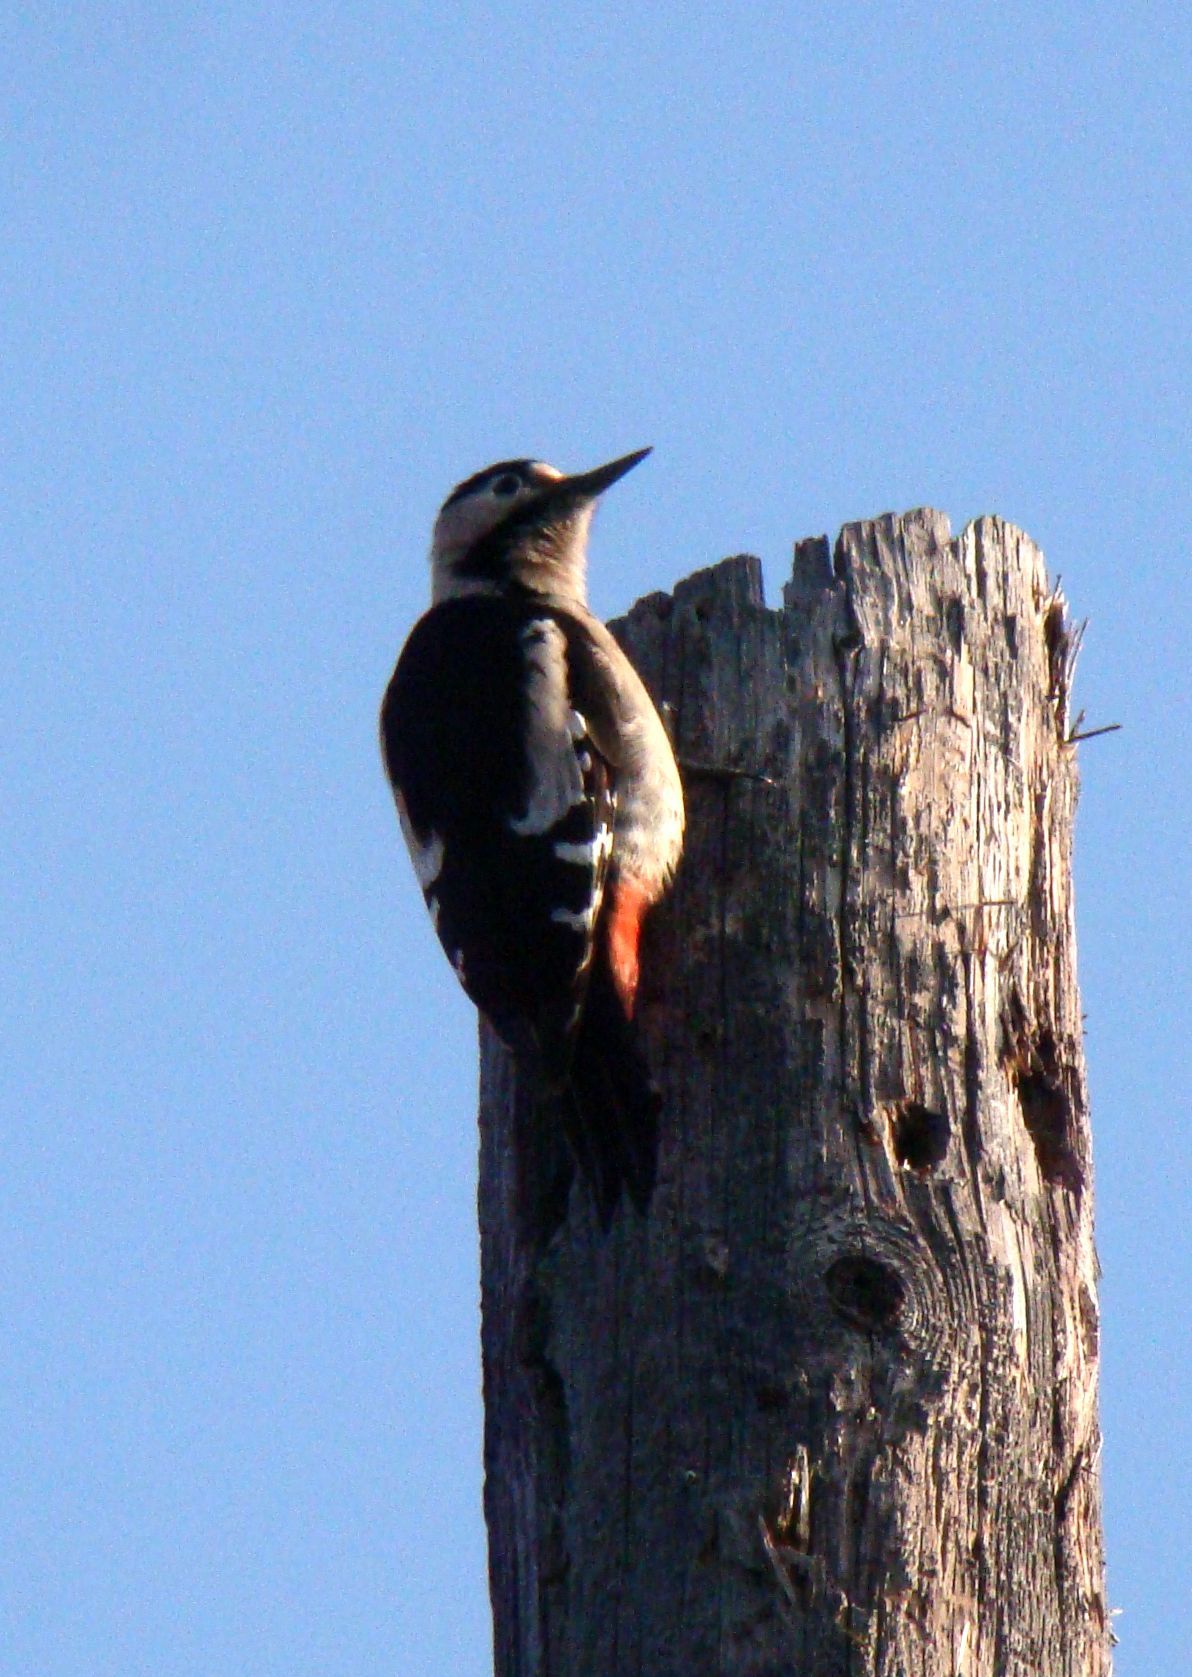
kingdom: Animalia
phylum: Chordata
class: Aves
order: Piciformes
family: Picidae
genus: Dendrocopos
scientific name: Dendrocopos major
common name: Great spotted woodpecker
